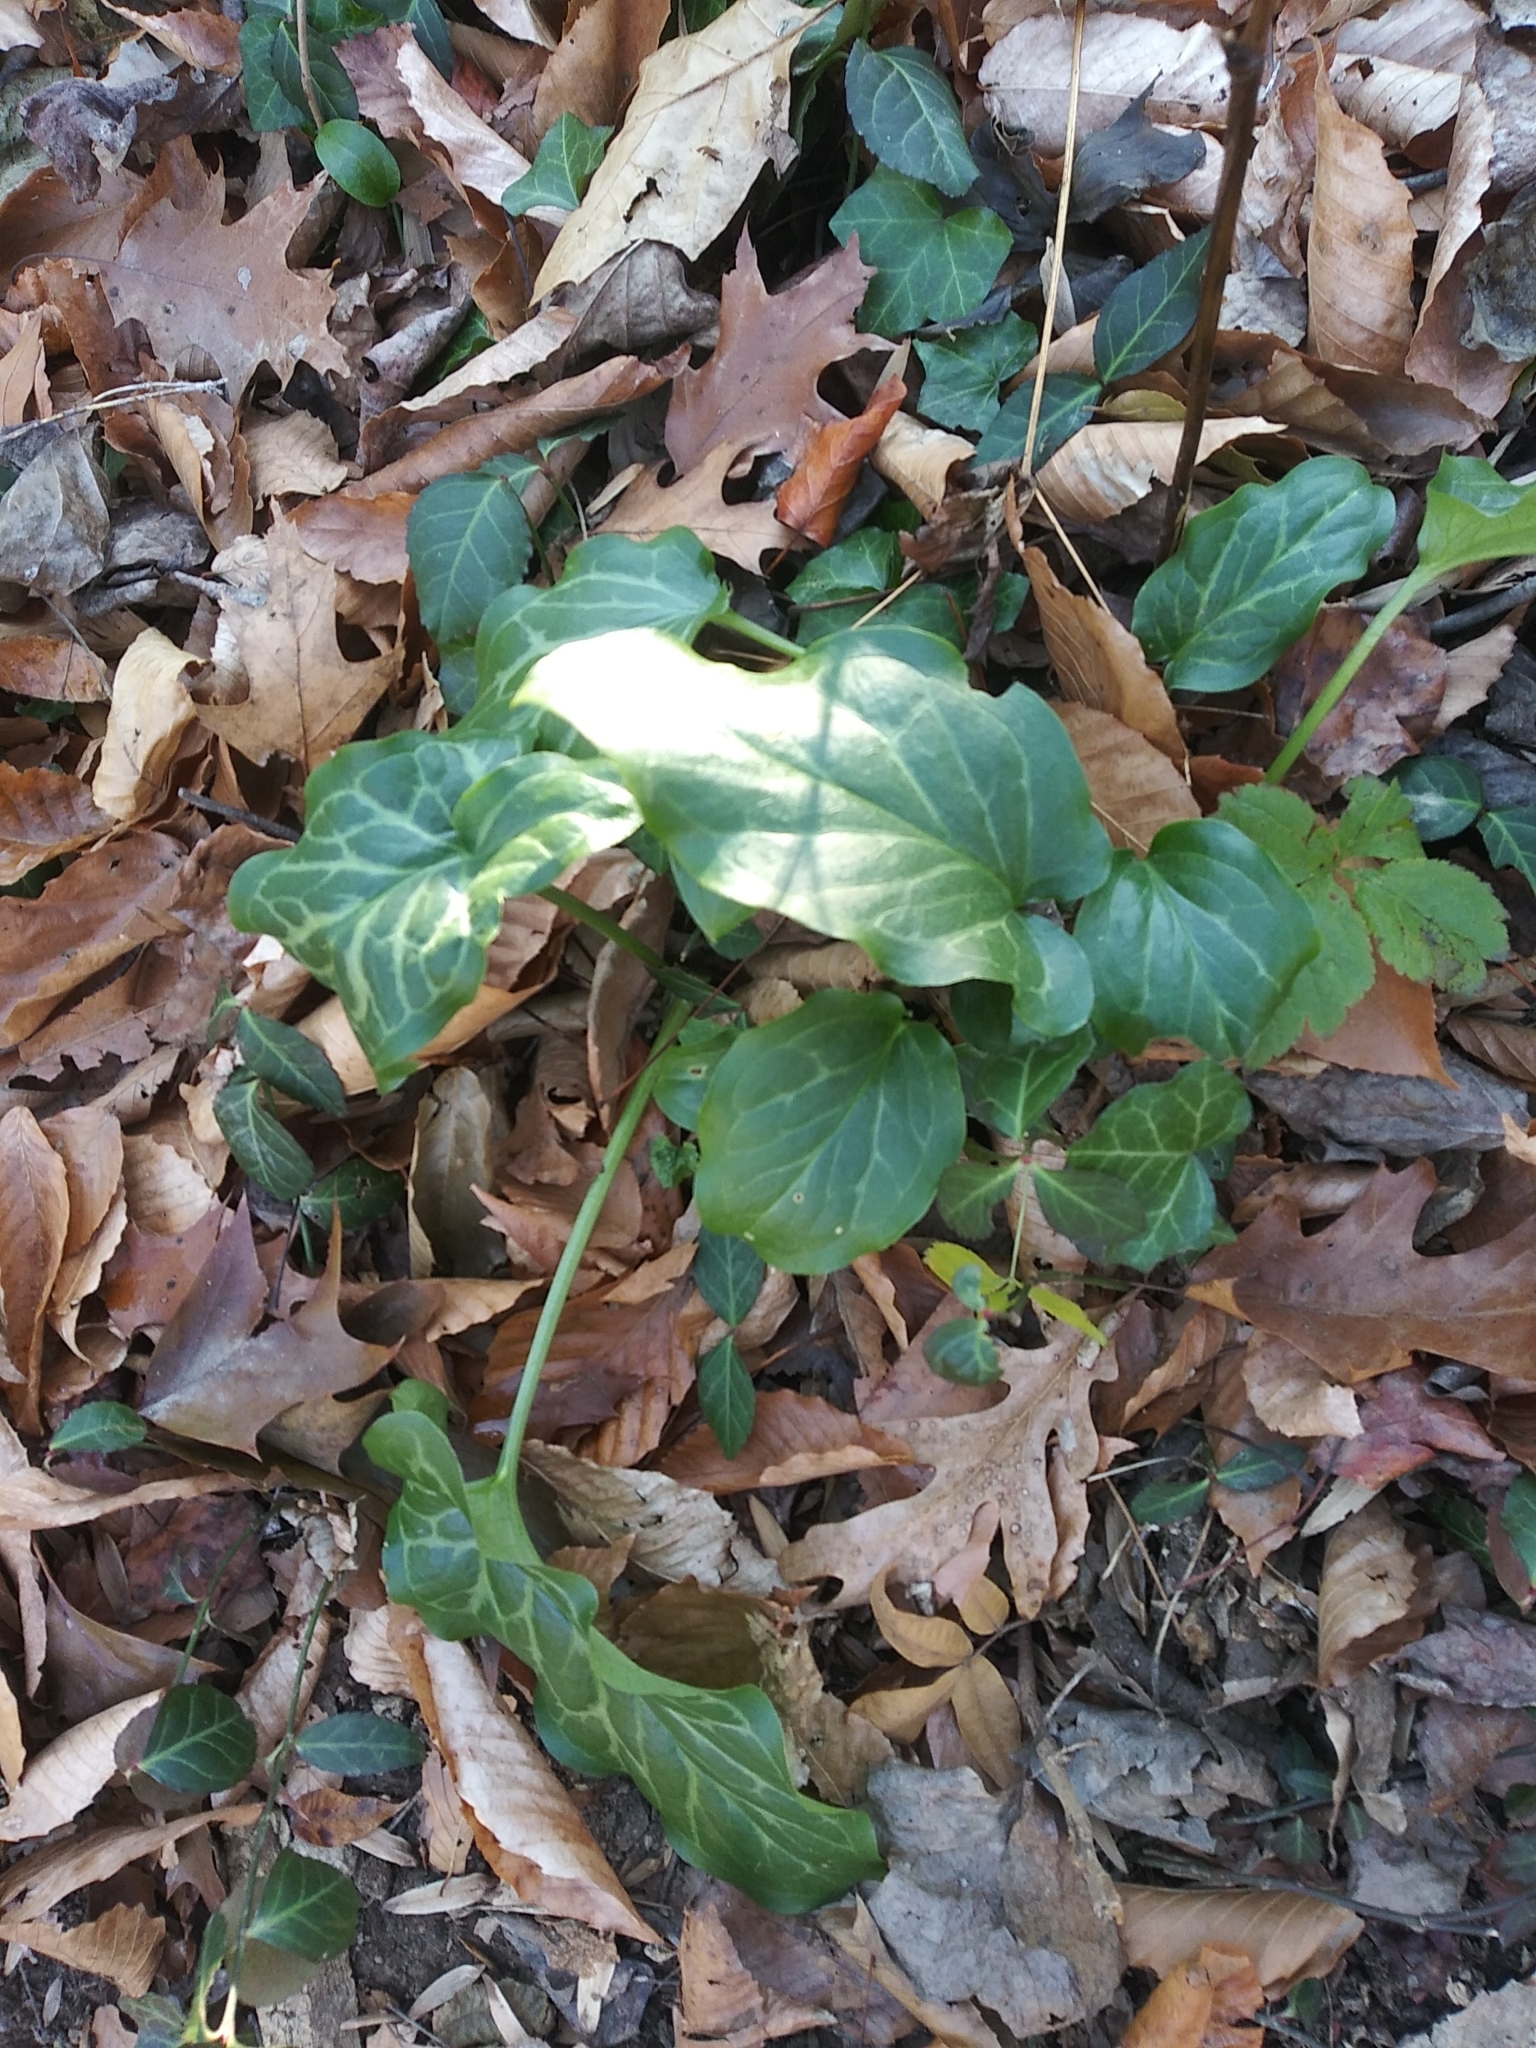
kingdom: Plantae
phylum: Tracheophyta
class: Liliopsida
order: Alismatales
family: Araceae
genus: Arum
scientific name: Arum italicum
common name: Italian lords-and-ladies
